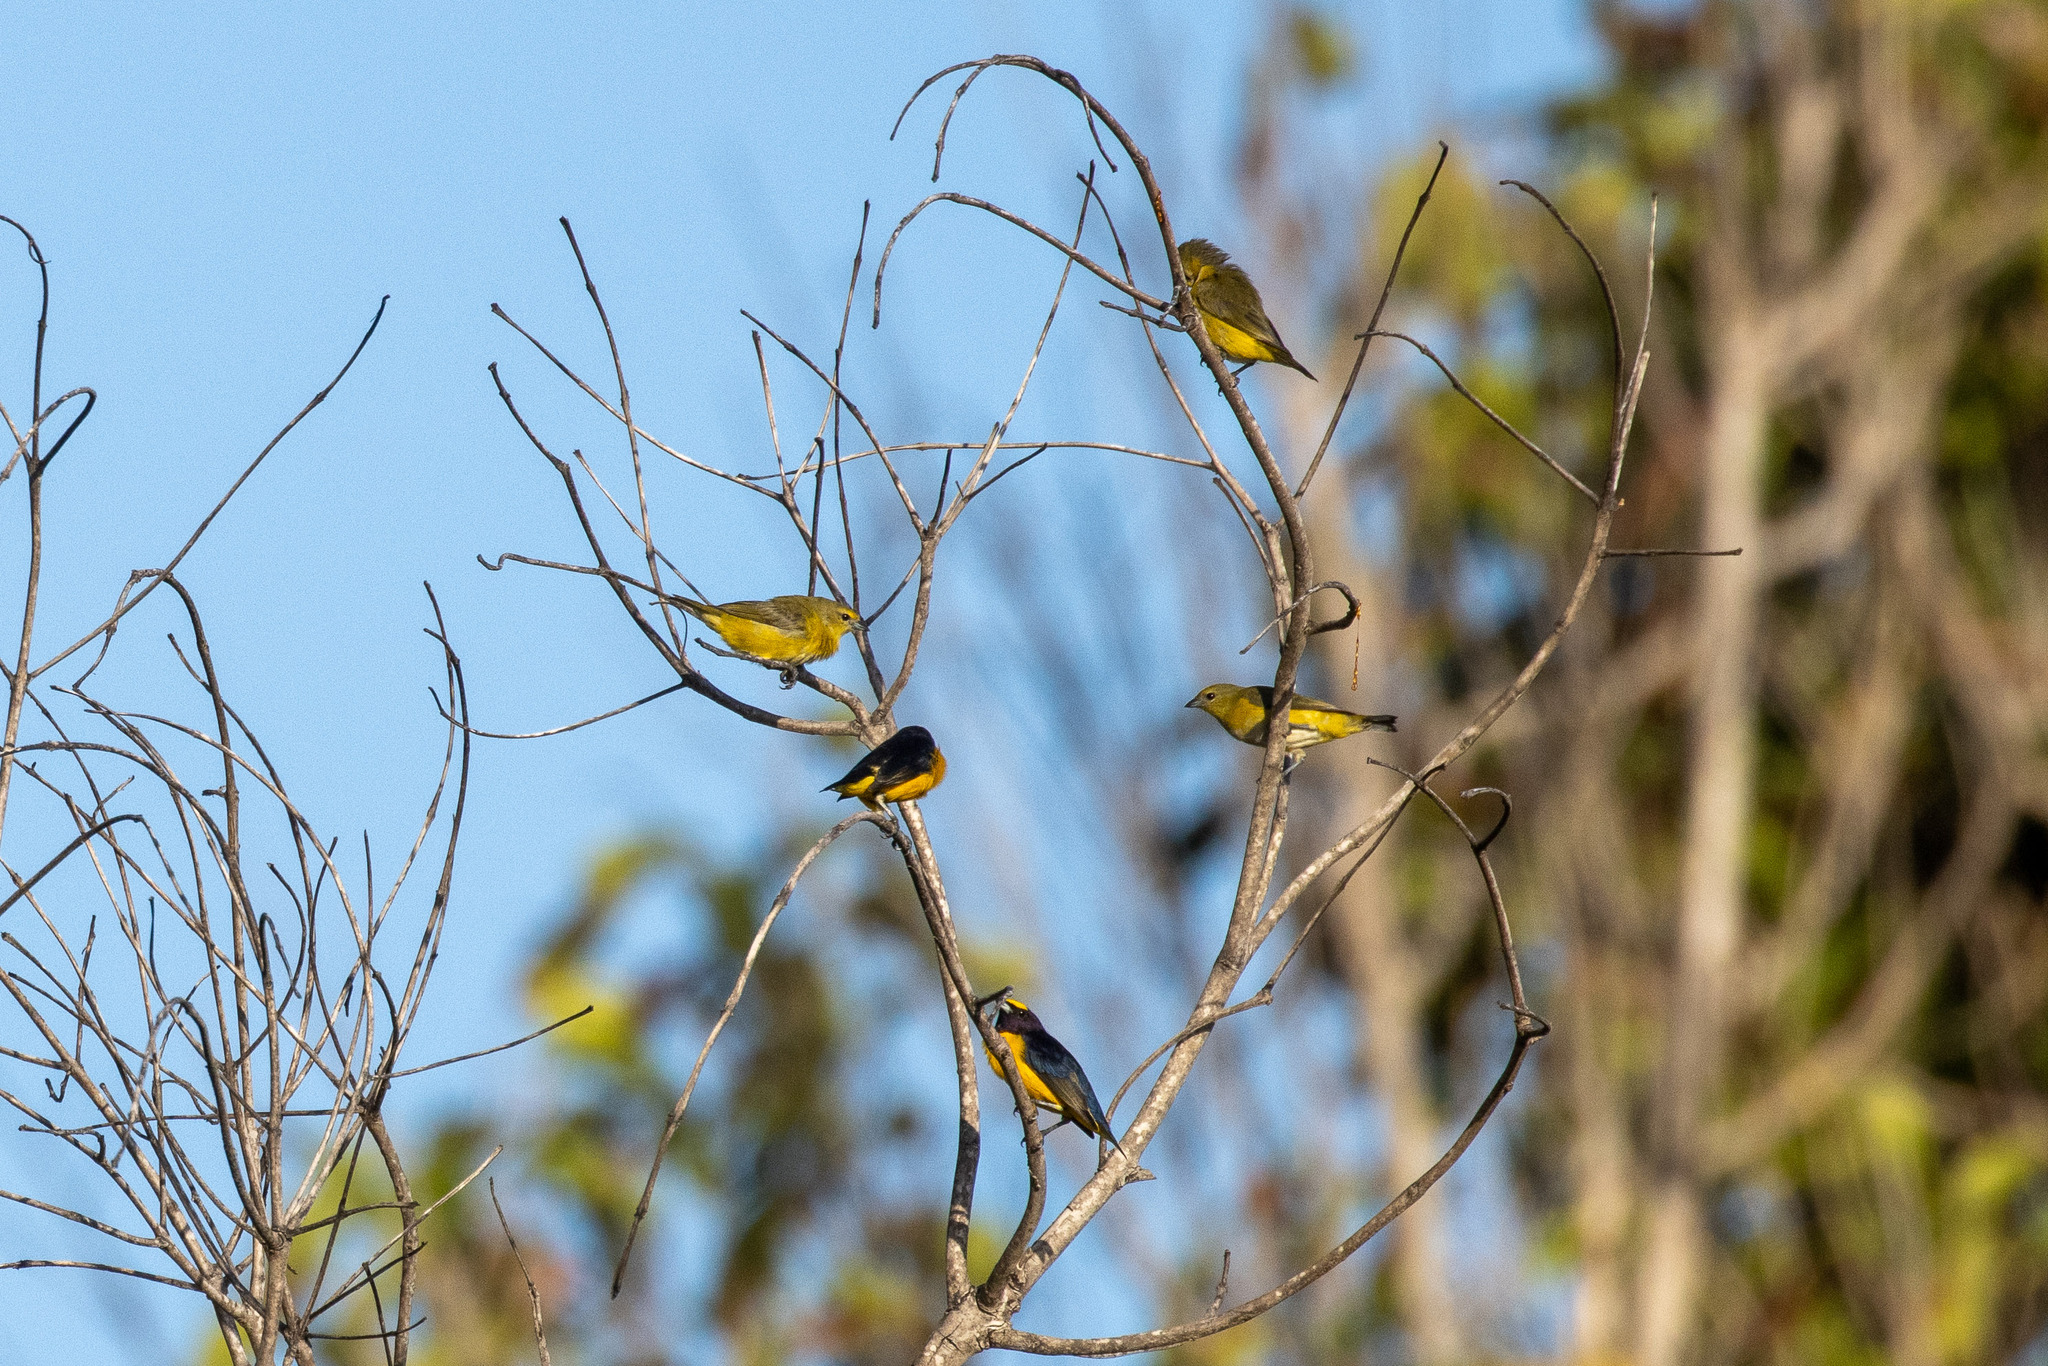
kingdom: Animalia
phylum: Chordata
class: Aves
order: Passeriformes
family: Fringillidae
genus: Euphonia
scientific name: Euphonia chlorotica
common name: Purple-throated euphonia
